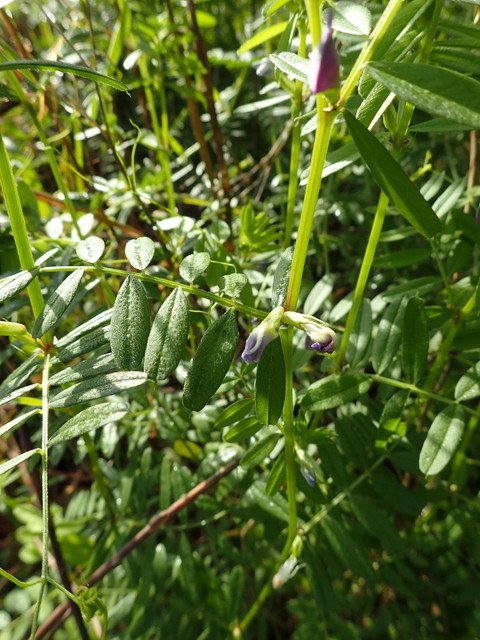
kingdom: Plantae
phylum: Tracheophyta
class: Magnoliopsida
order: Fabales
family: Fabaceae
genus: Vicia
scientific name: Vicia sativa
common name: Garden vetch
